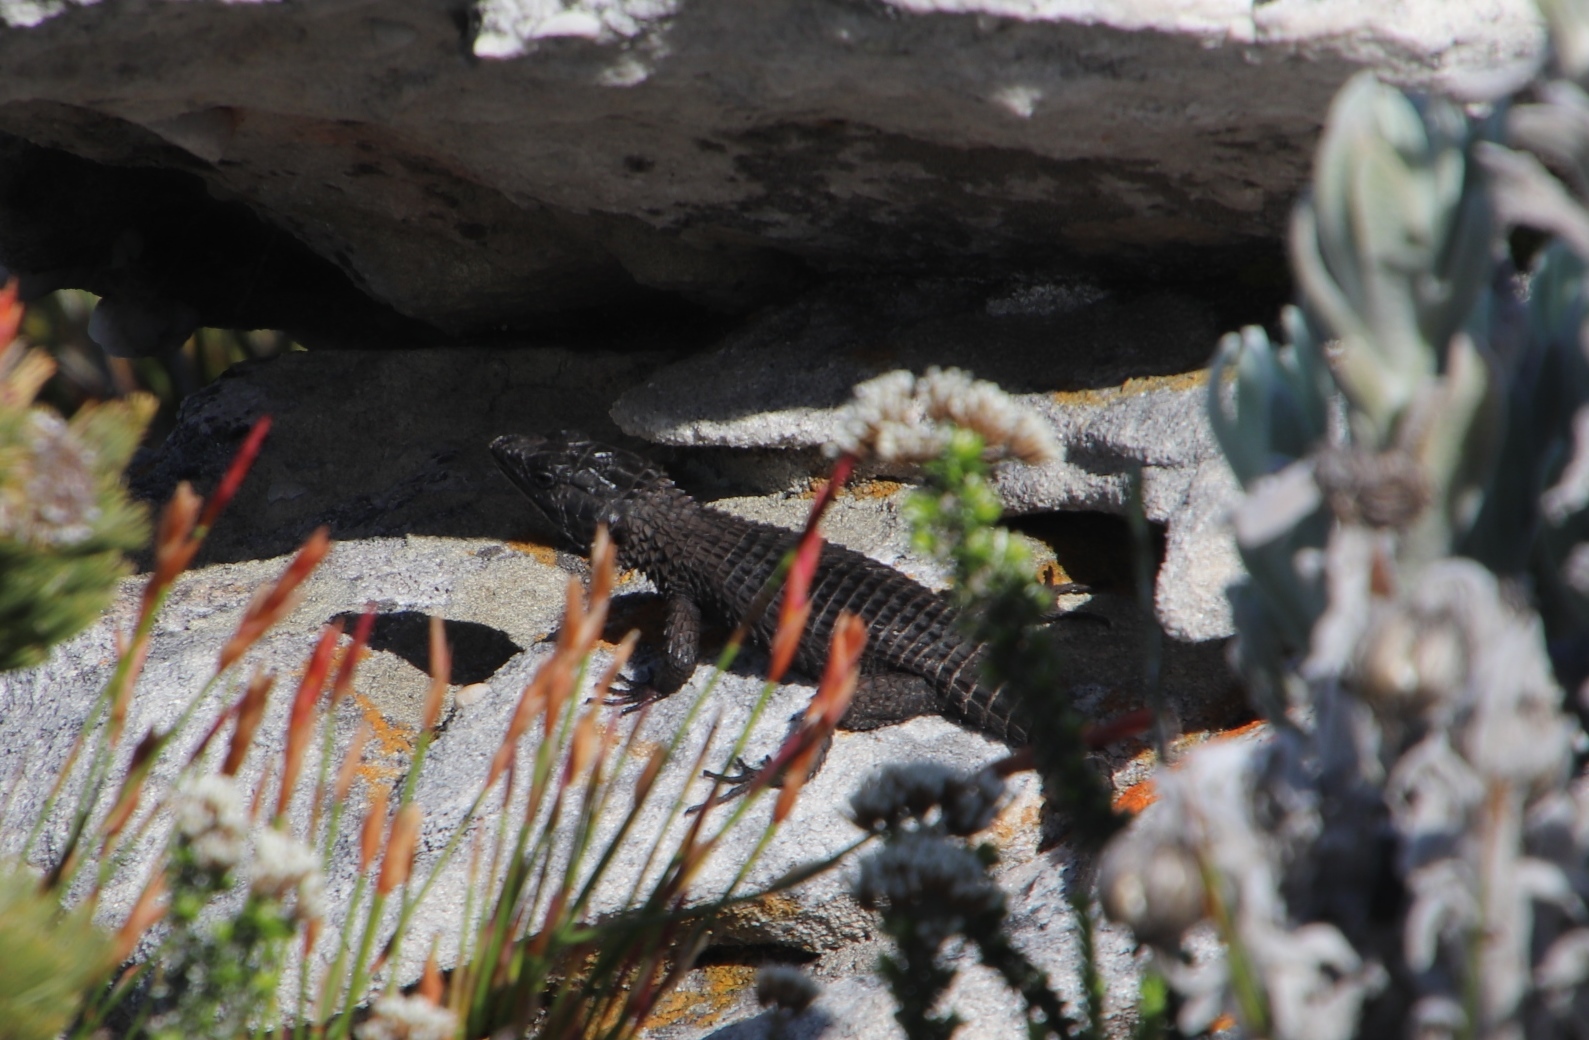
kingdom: Animalia
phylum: Chordata
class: Squamata
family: Cordylidae
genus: Cordylus
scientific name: Cordylus niger
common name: Black girdled lizard
